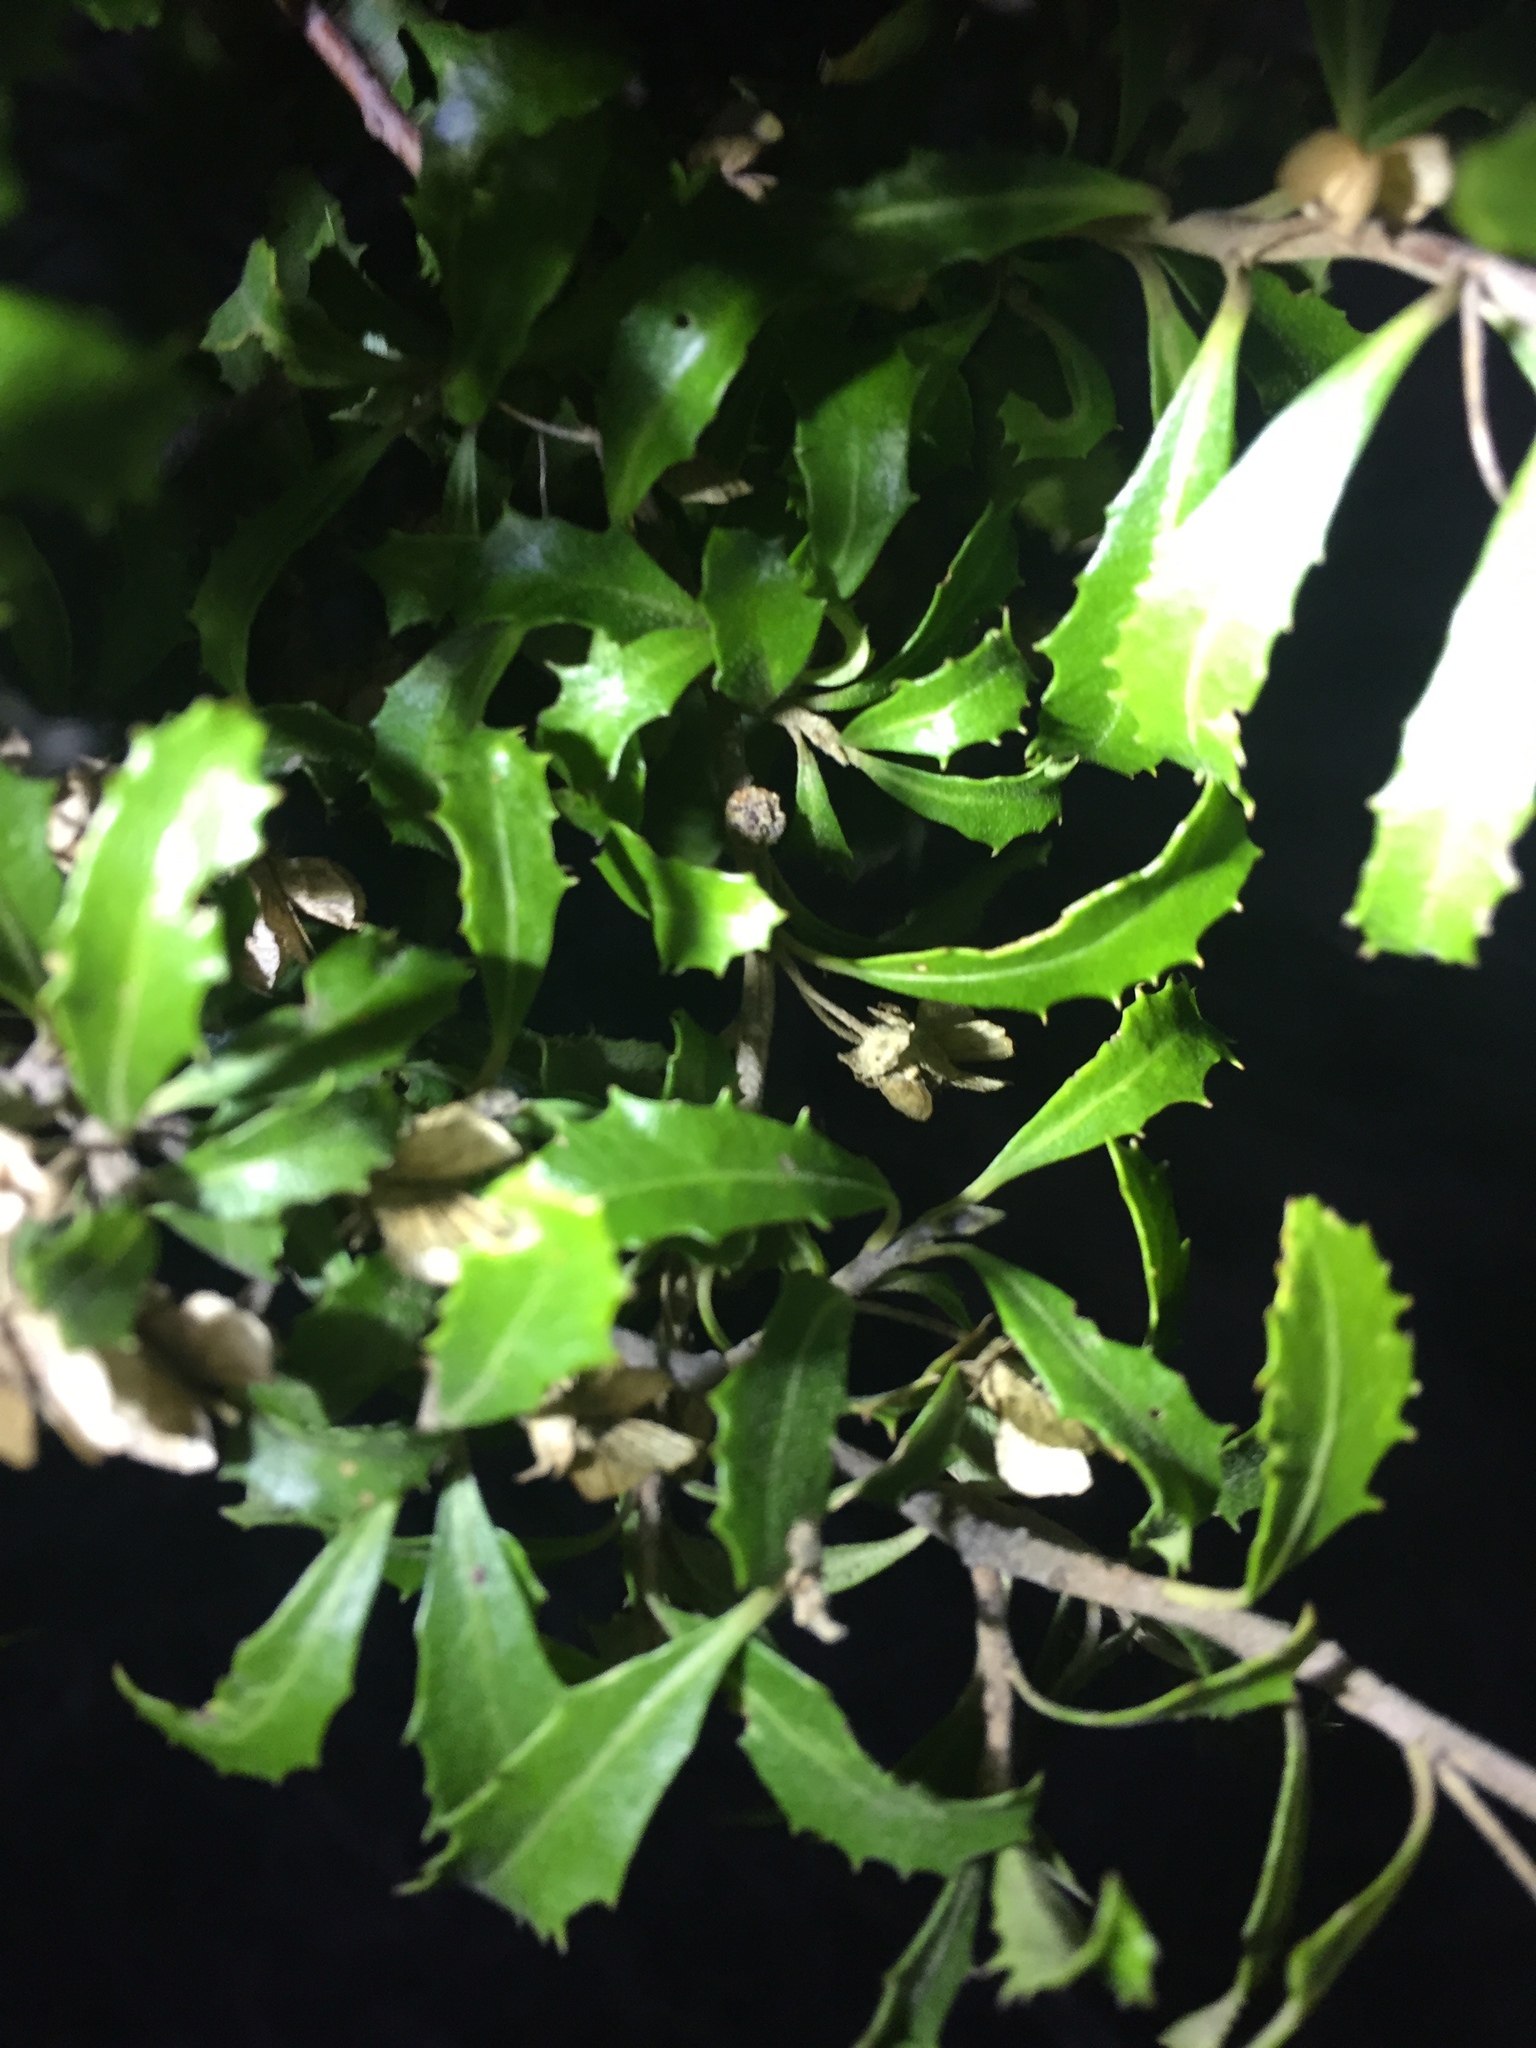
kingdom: Plantae
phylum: Tracheophyta
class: Magnoliopsida
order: Malvales
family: Malvaceae
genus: Hoheria
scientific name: Hoheria angustifolia
